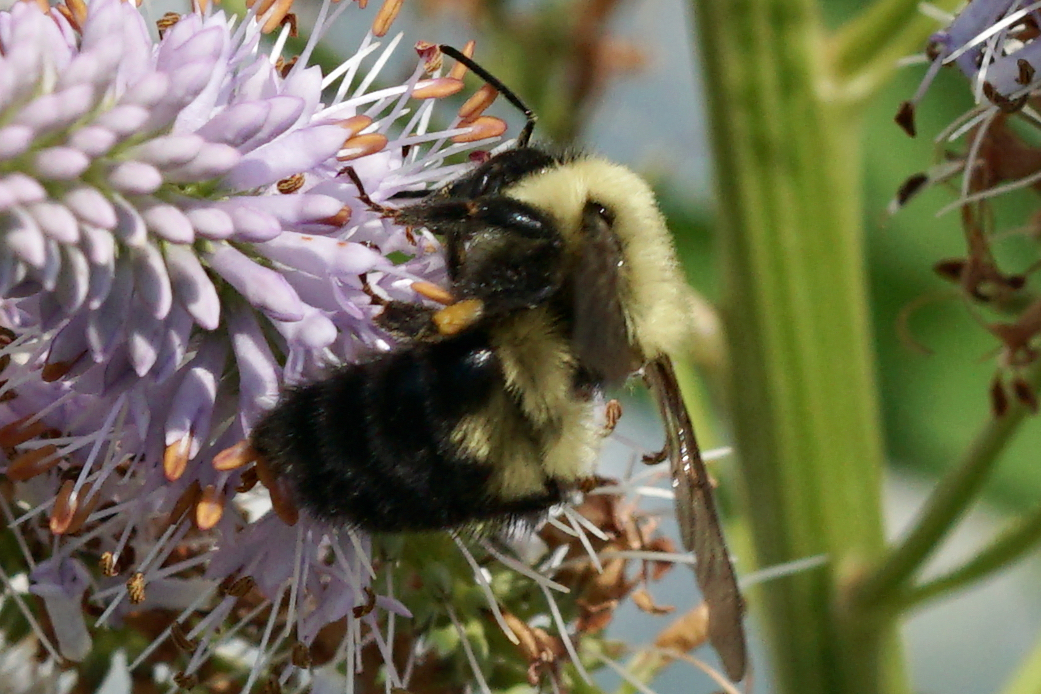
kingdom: Animalia
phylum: Arthropoda
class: Insecta
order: Hymenoptera
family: Apidae
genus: Bombus
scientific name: Bombus bimaculatus
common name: Two-spotted bumble bee
